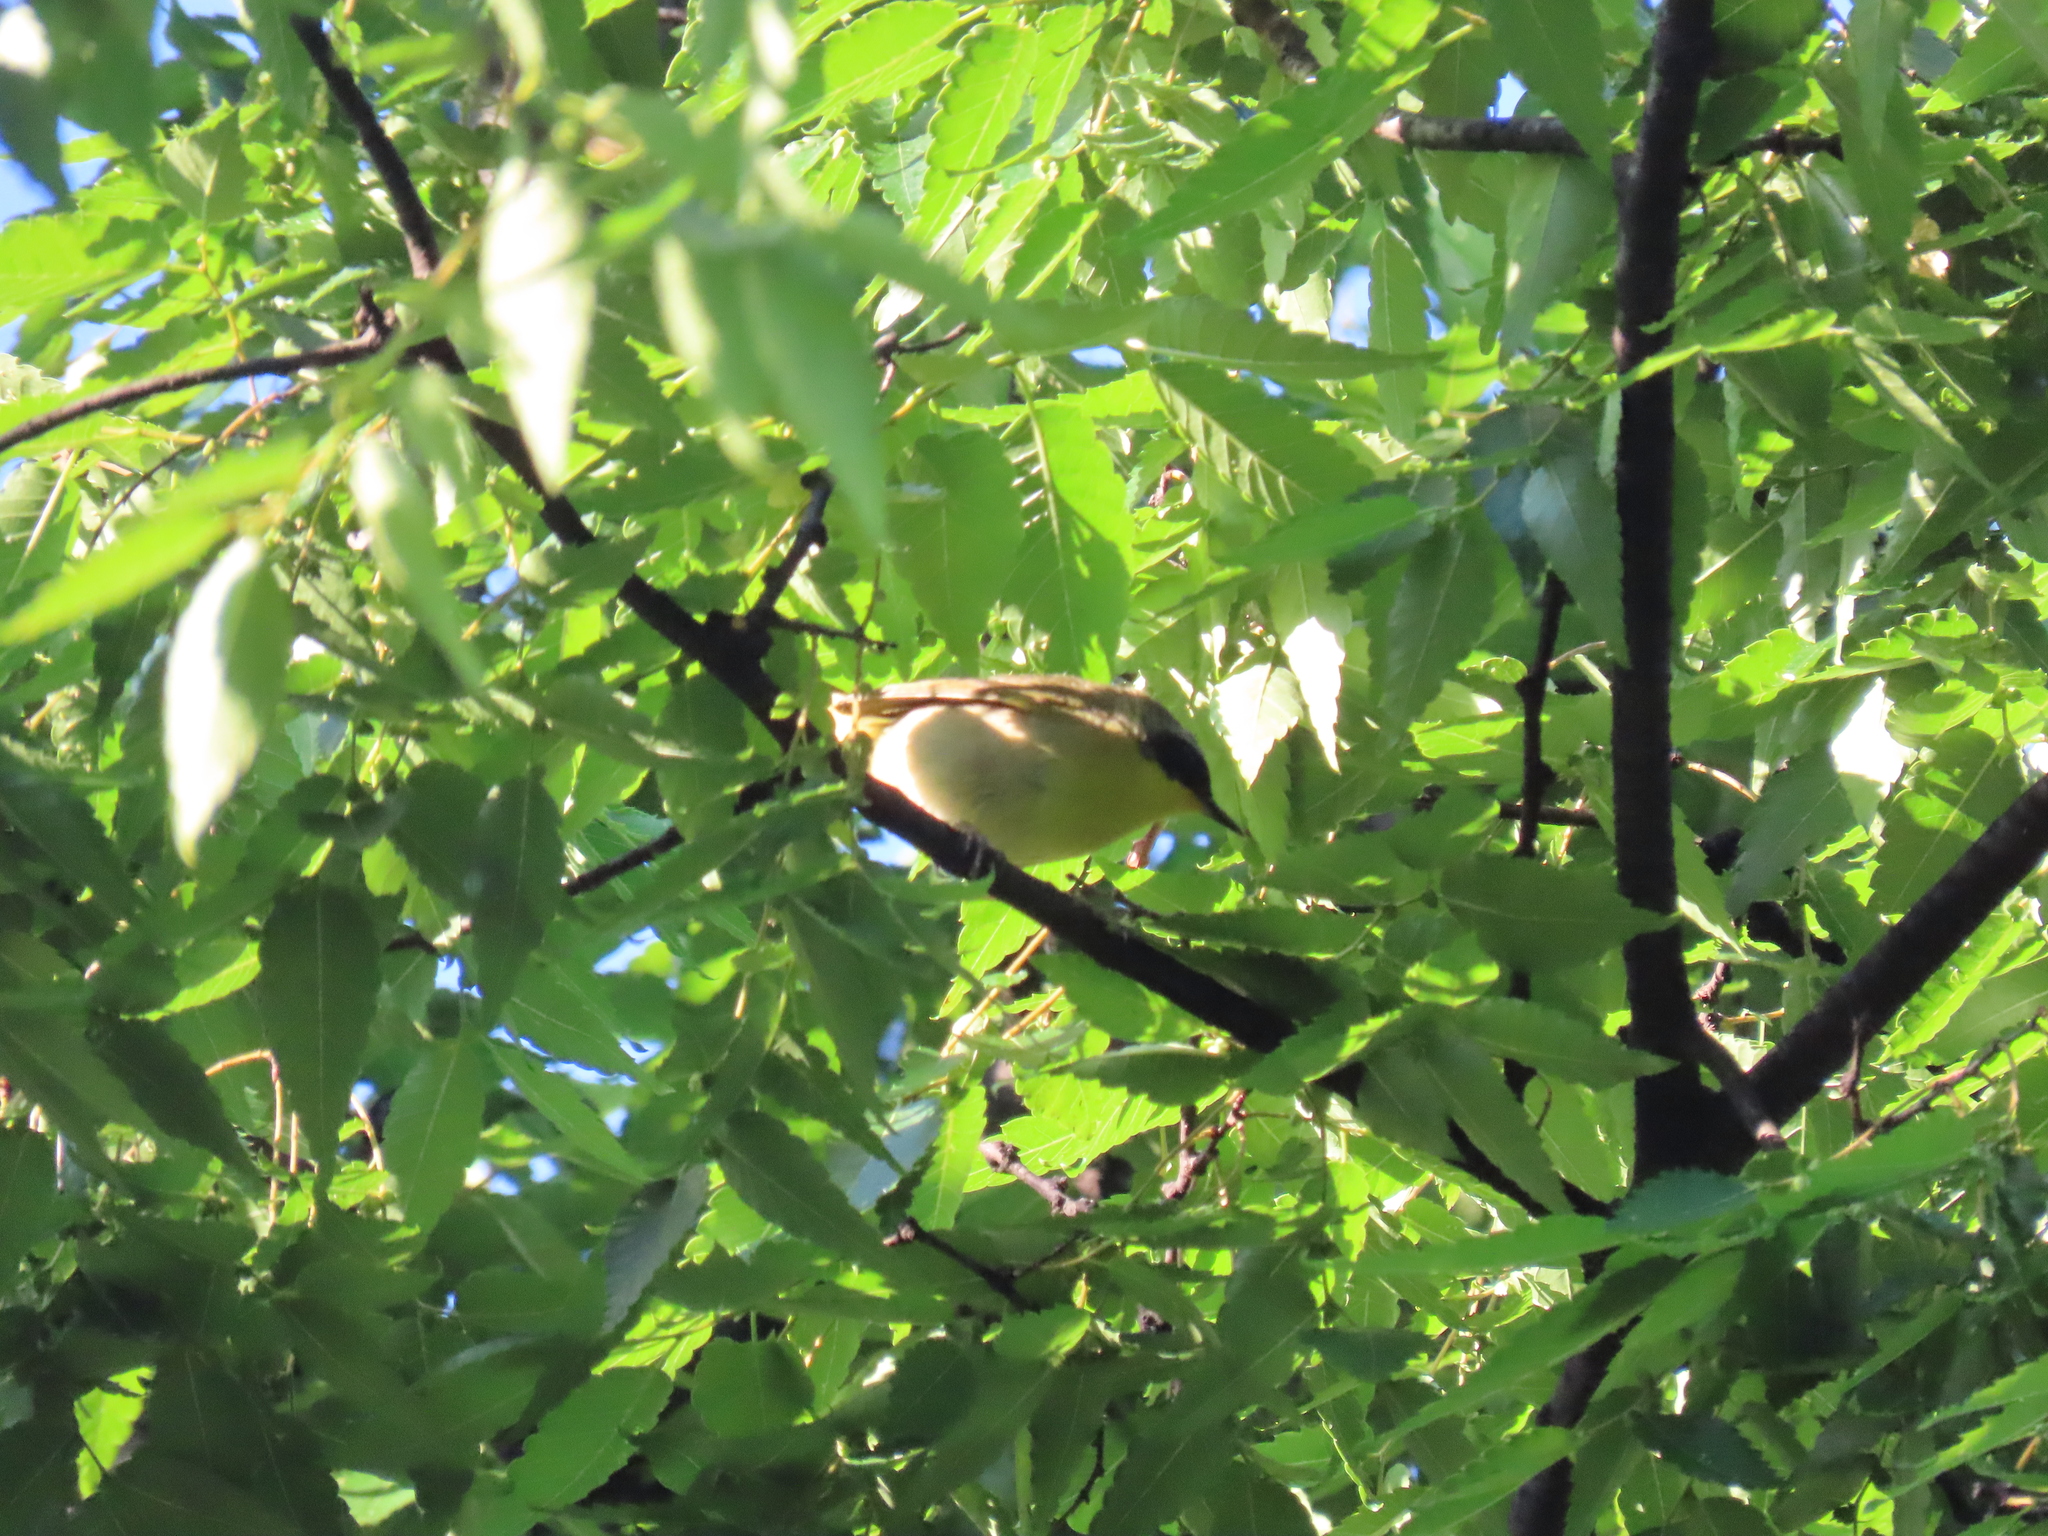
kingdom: Animalia
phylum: Chordata
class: Aves
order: Passeriformes
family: Parulidae
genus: Geothlypis
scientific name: Geothlypis trichas
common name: Common yellowthroat
